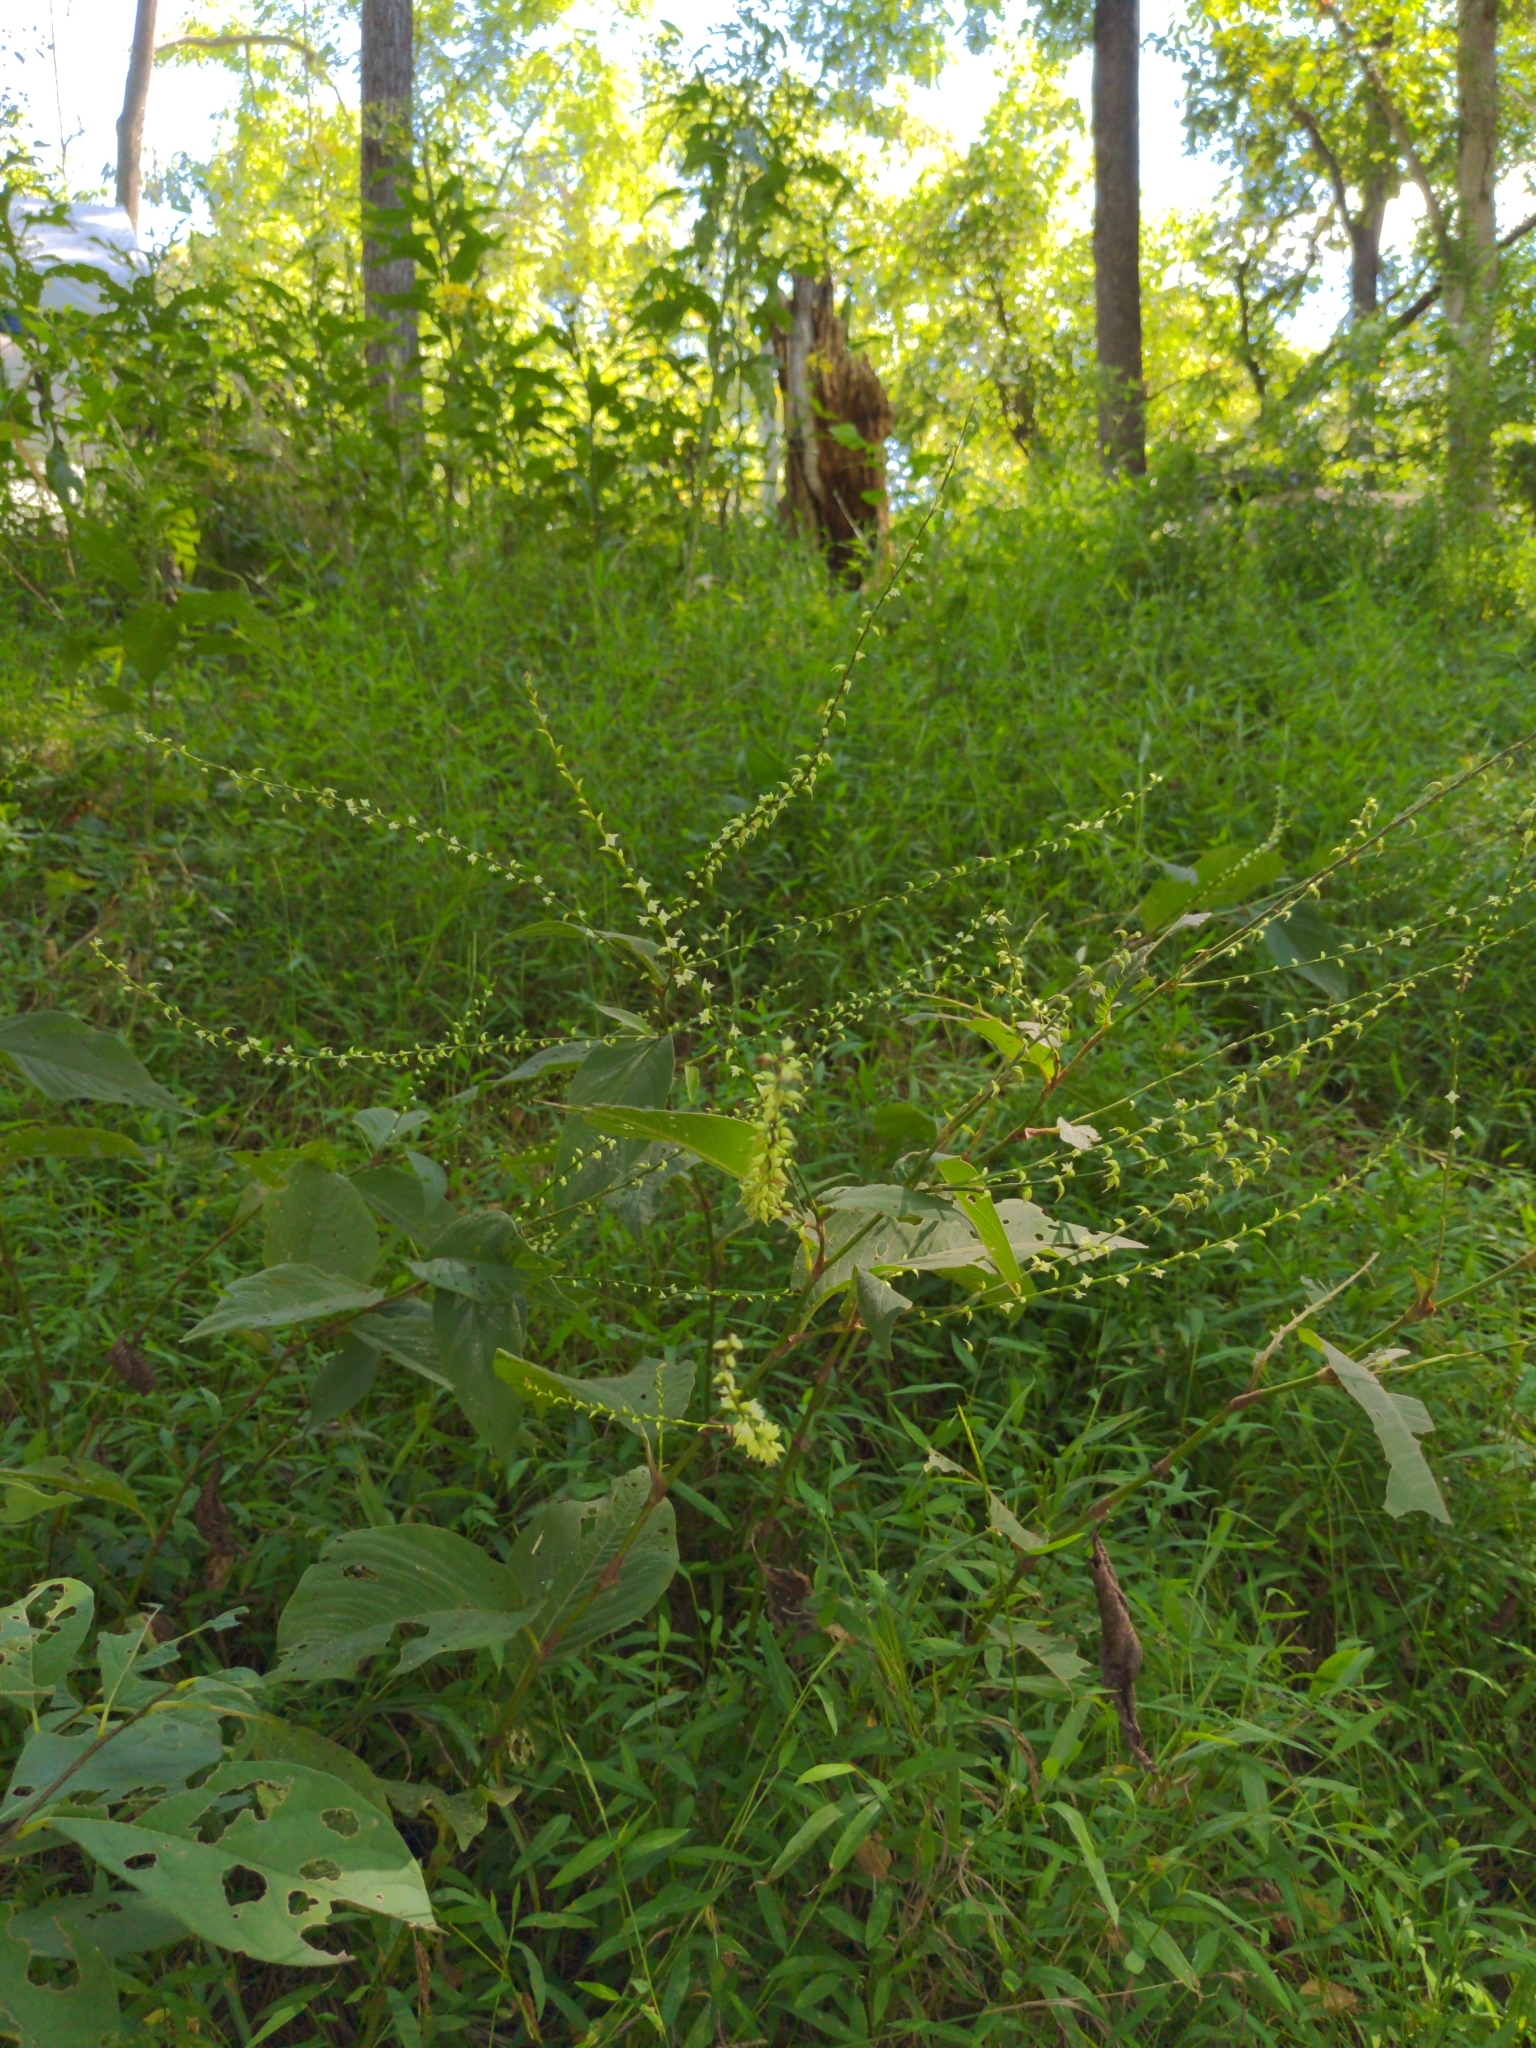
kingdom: Plantae
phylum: Tracheophyta
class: Magnoliopsida
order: Caryophyllales
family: Polygonaceae
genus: Persicaria
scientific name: Persicaria virginiana
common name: Jumpseed
